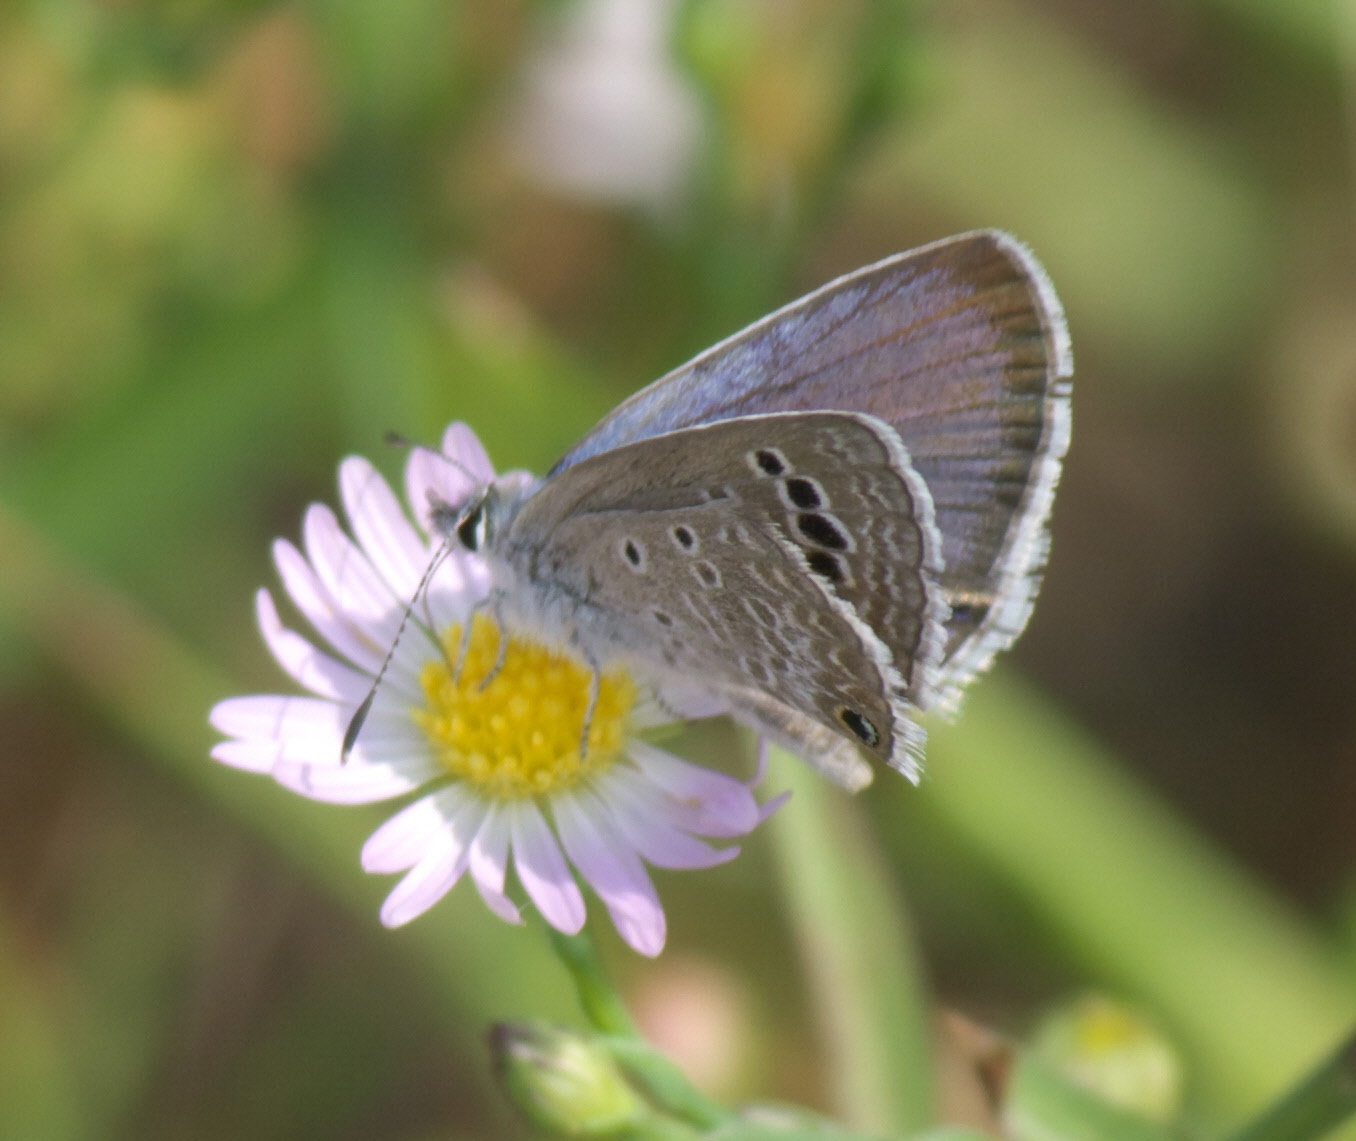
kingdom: Animalia
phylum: Arthropoda
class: Insecta
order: Lepidoptera
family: Lycaenidae
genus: Echinargus
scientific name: Echinargus isola
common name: Reakirt's blue
